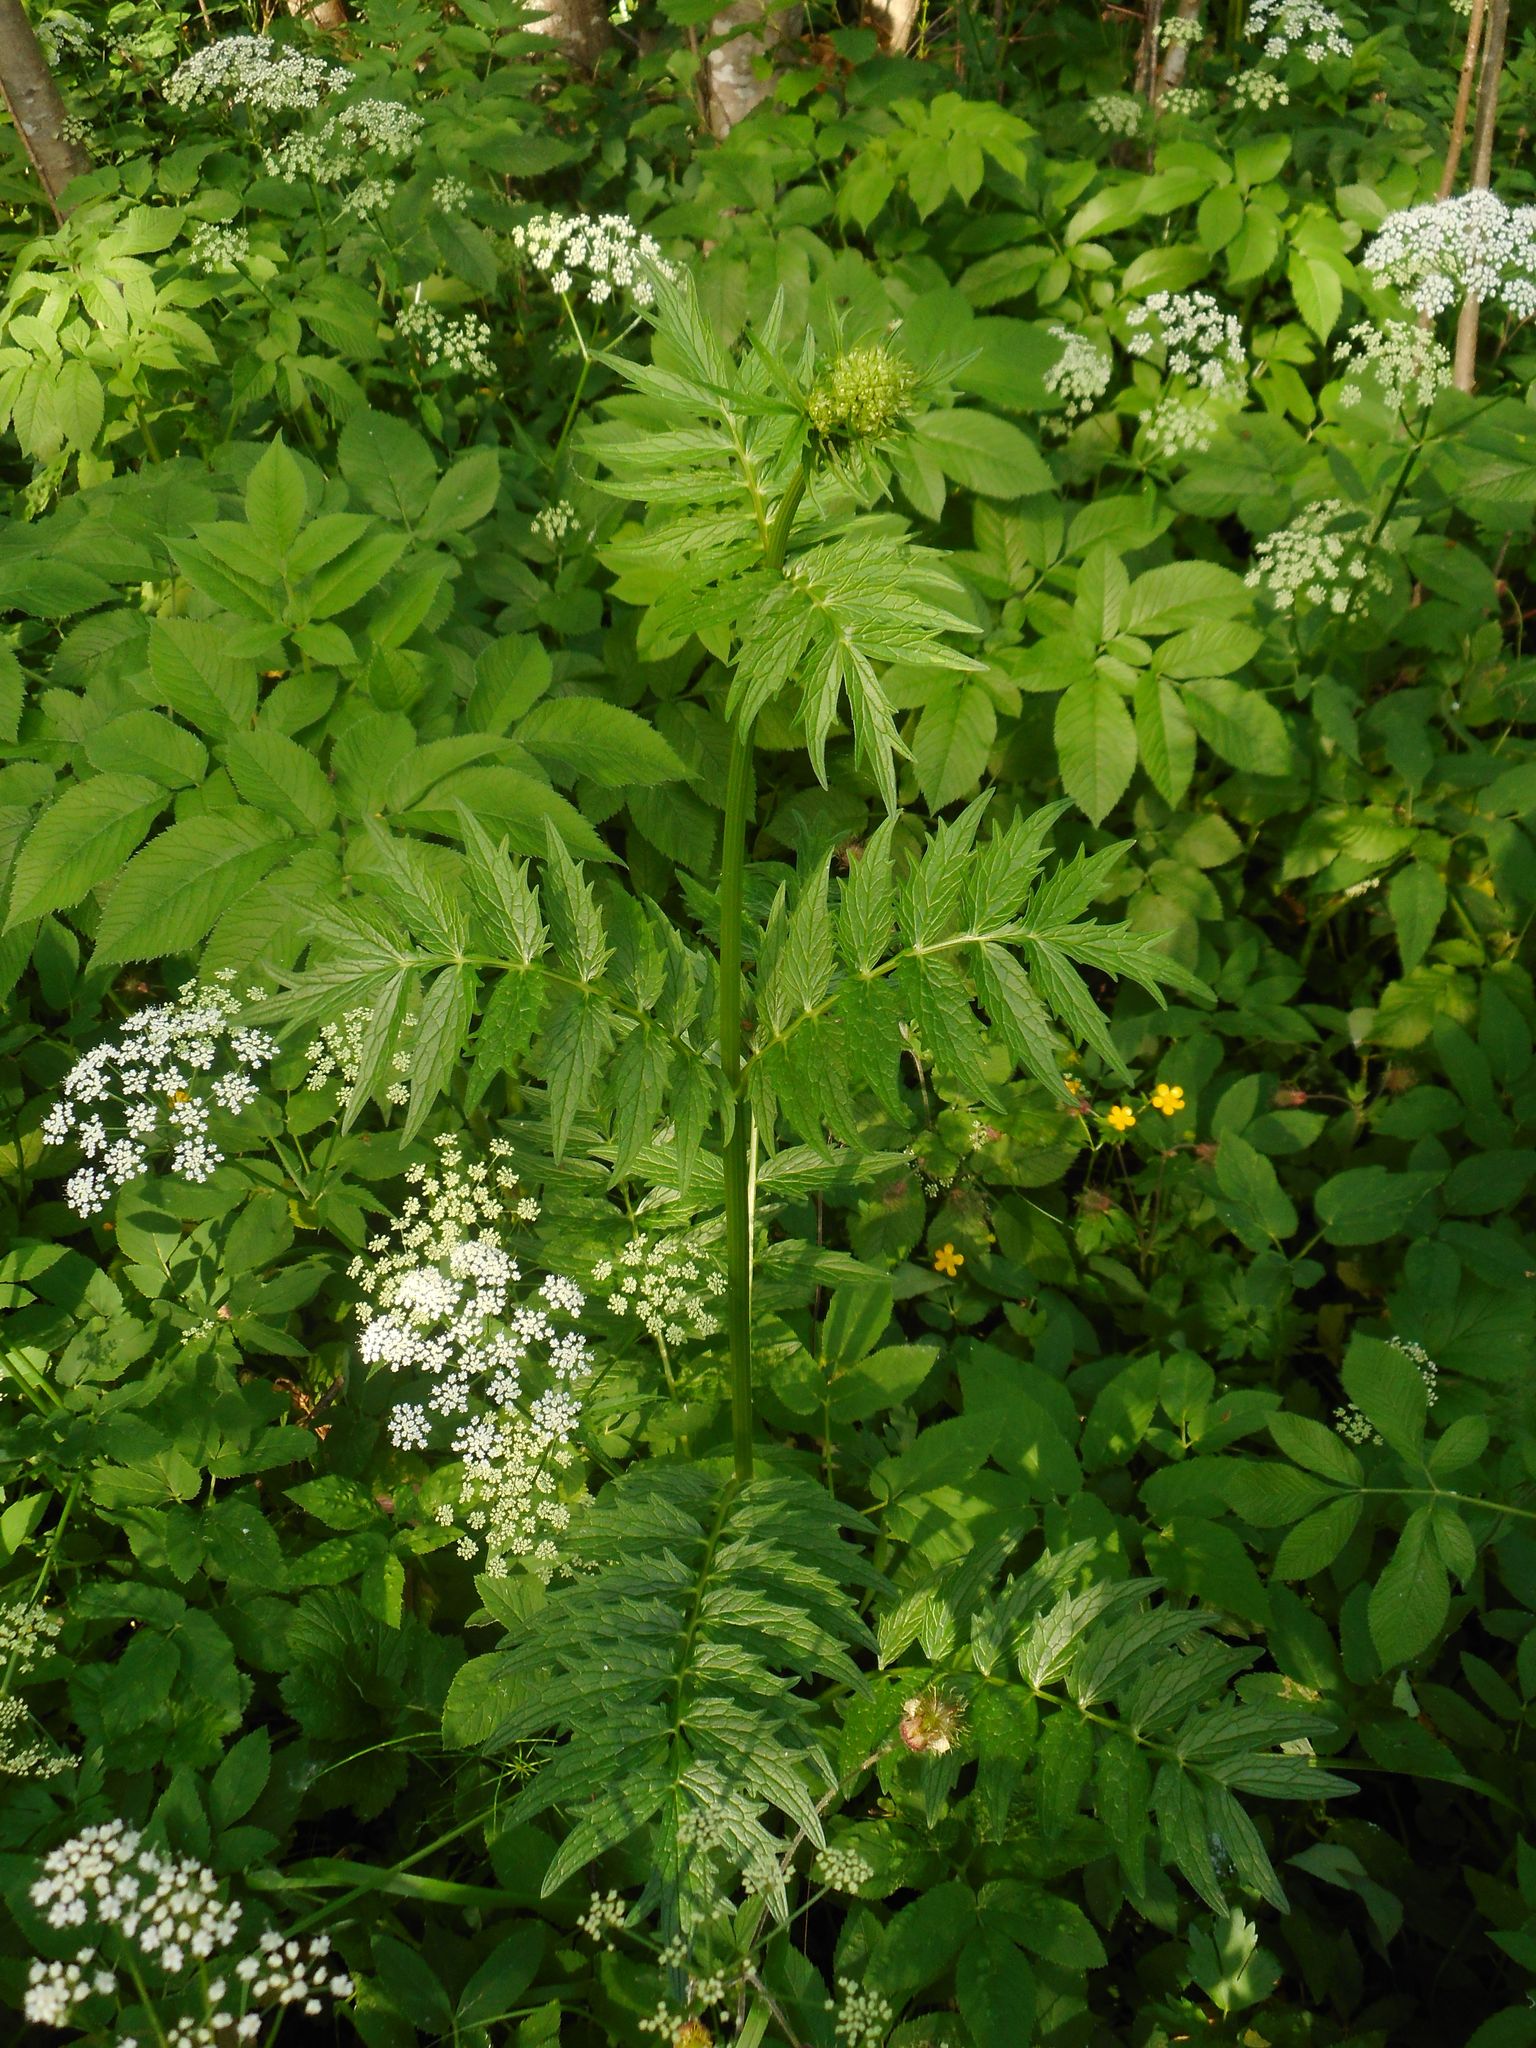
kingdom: Plantae
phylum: Tracheophyta
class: Magnoliopsida
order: Dipsacales
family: Caprifoliaceae
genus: Valeriana
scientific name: Valeriana officinalis
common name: Common valerian
